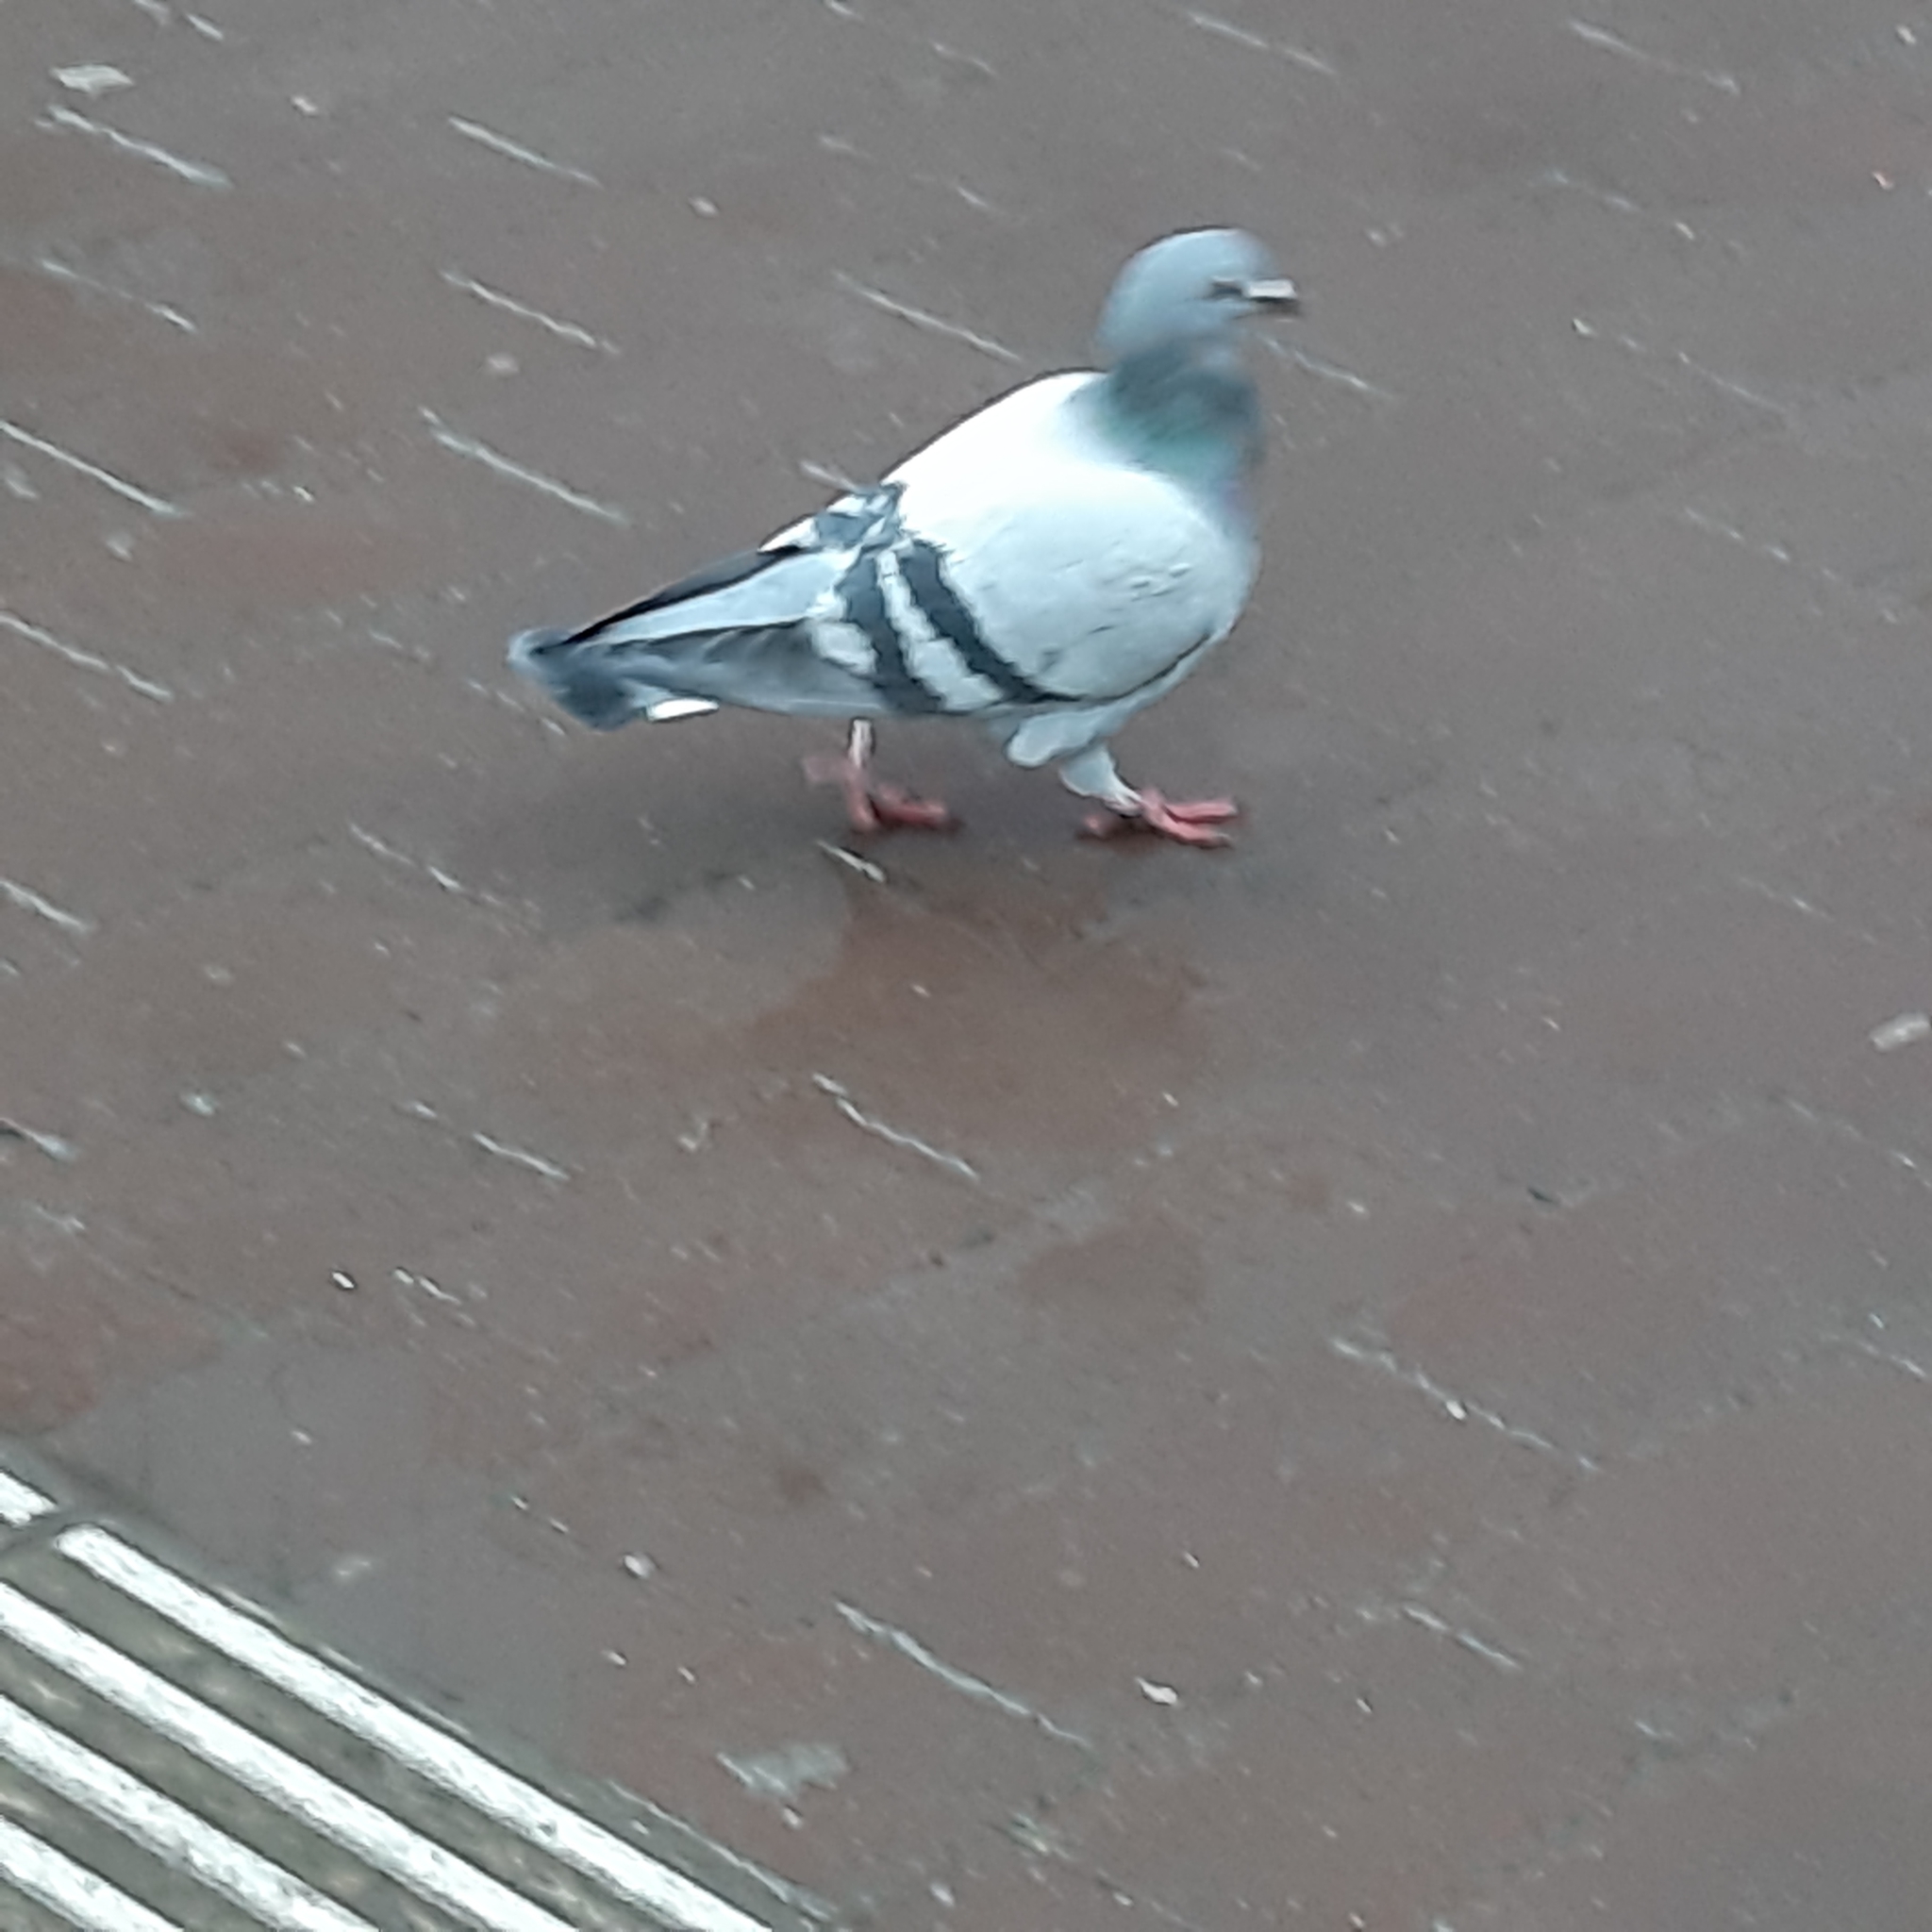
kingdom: Animalia
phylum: Chordata
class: Aves
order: Columbiformes
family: Columbidae
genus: Columba
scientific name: Columba livia
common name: Rock pigeon
